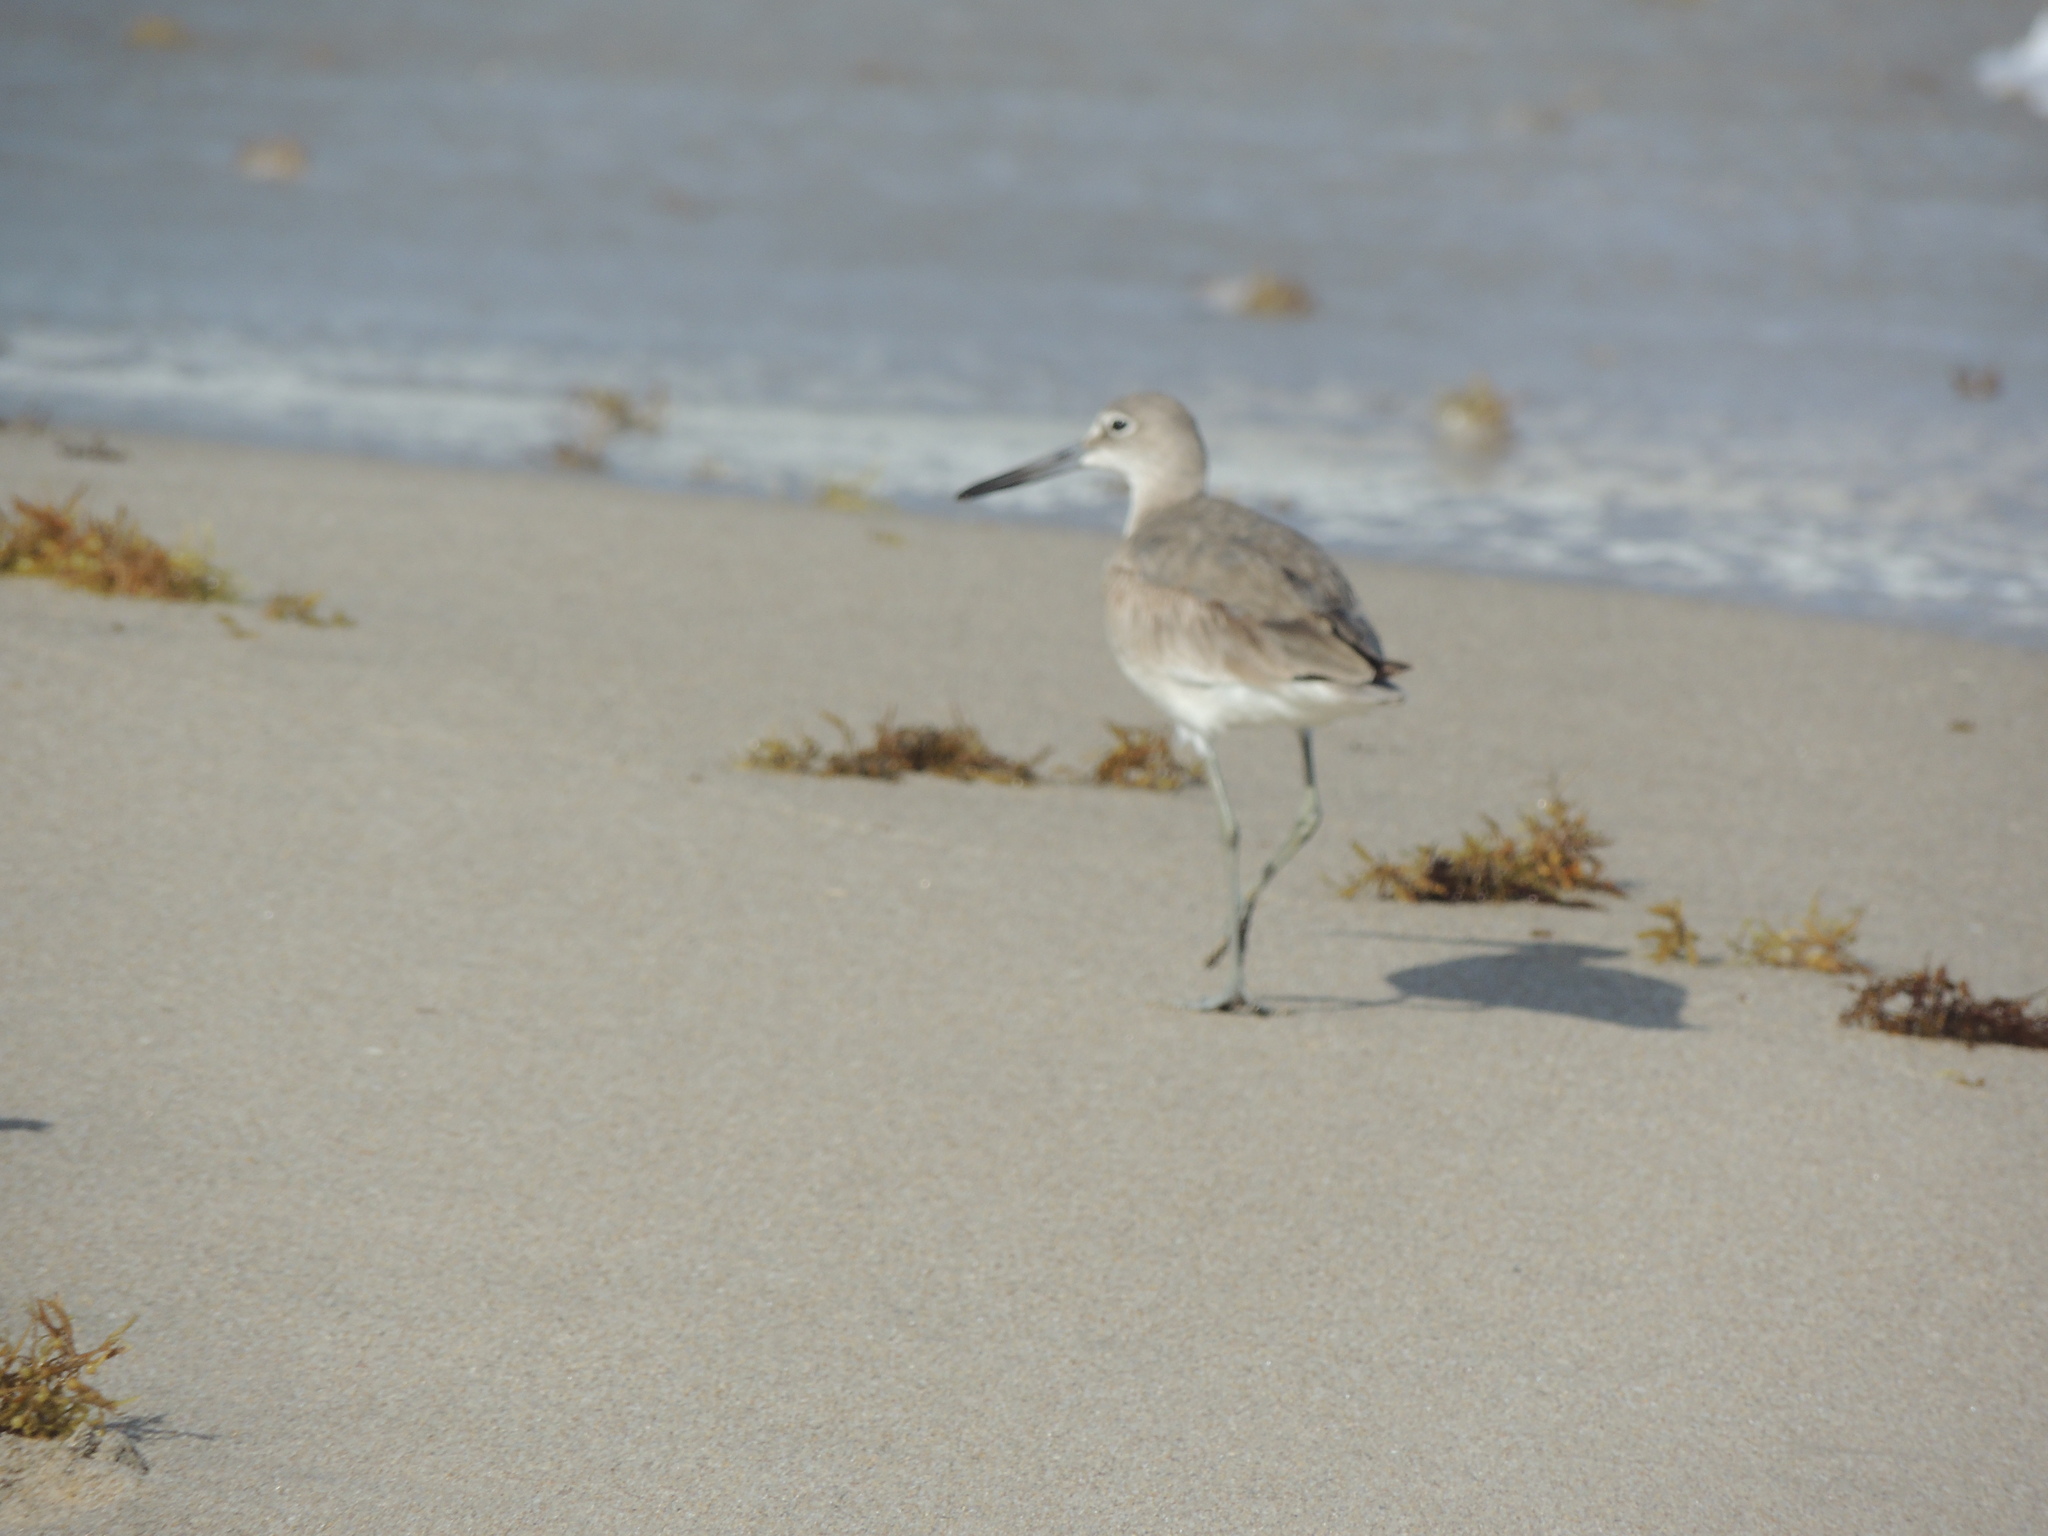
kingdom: Animalia
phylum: Chordata
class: Aves
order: Charadriiformes
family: Scolopacidae
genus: Tringa
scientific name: Tringa semipalmata
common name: Willet
